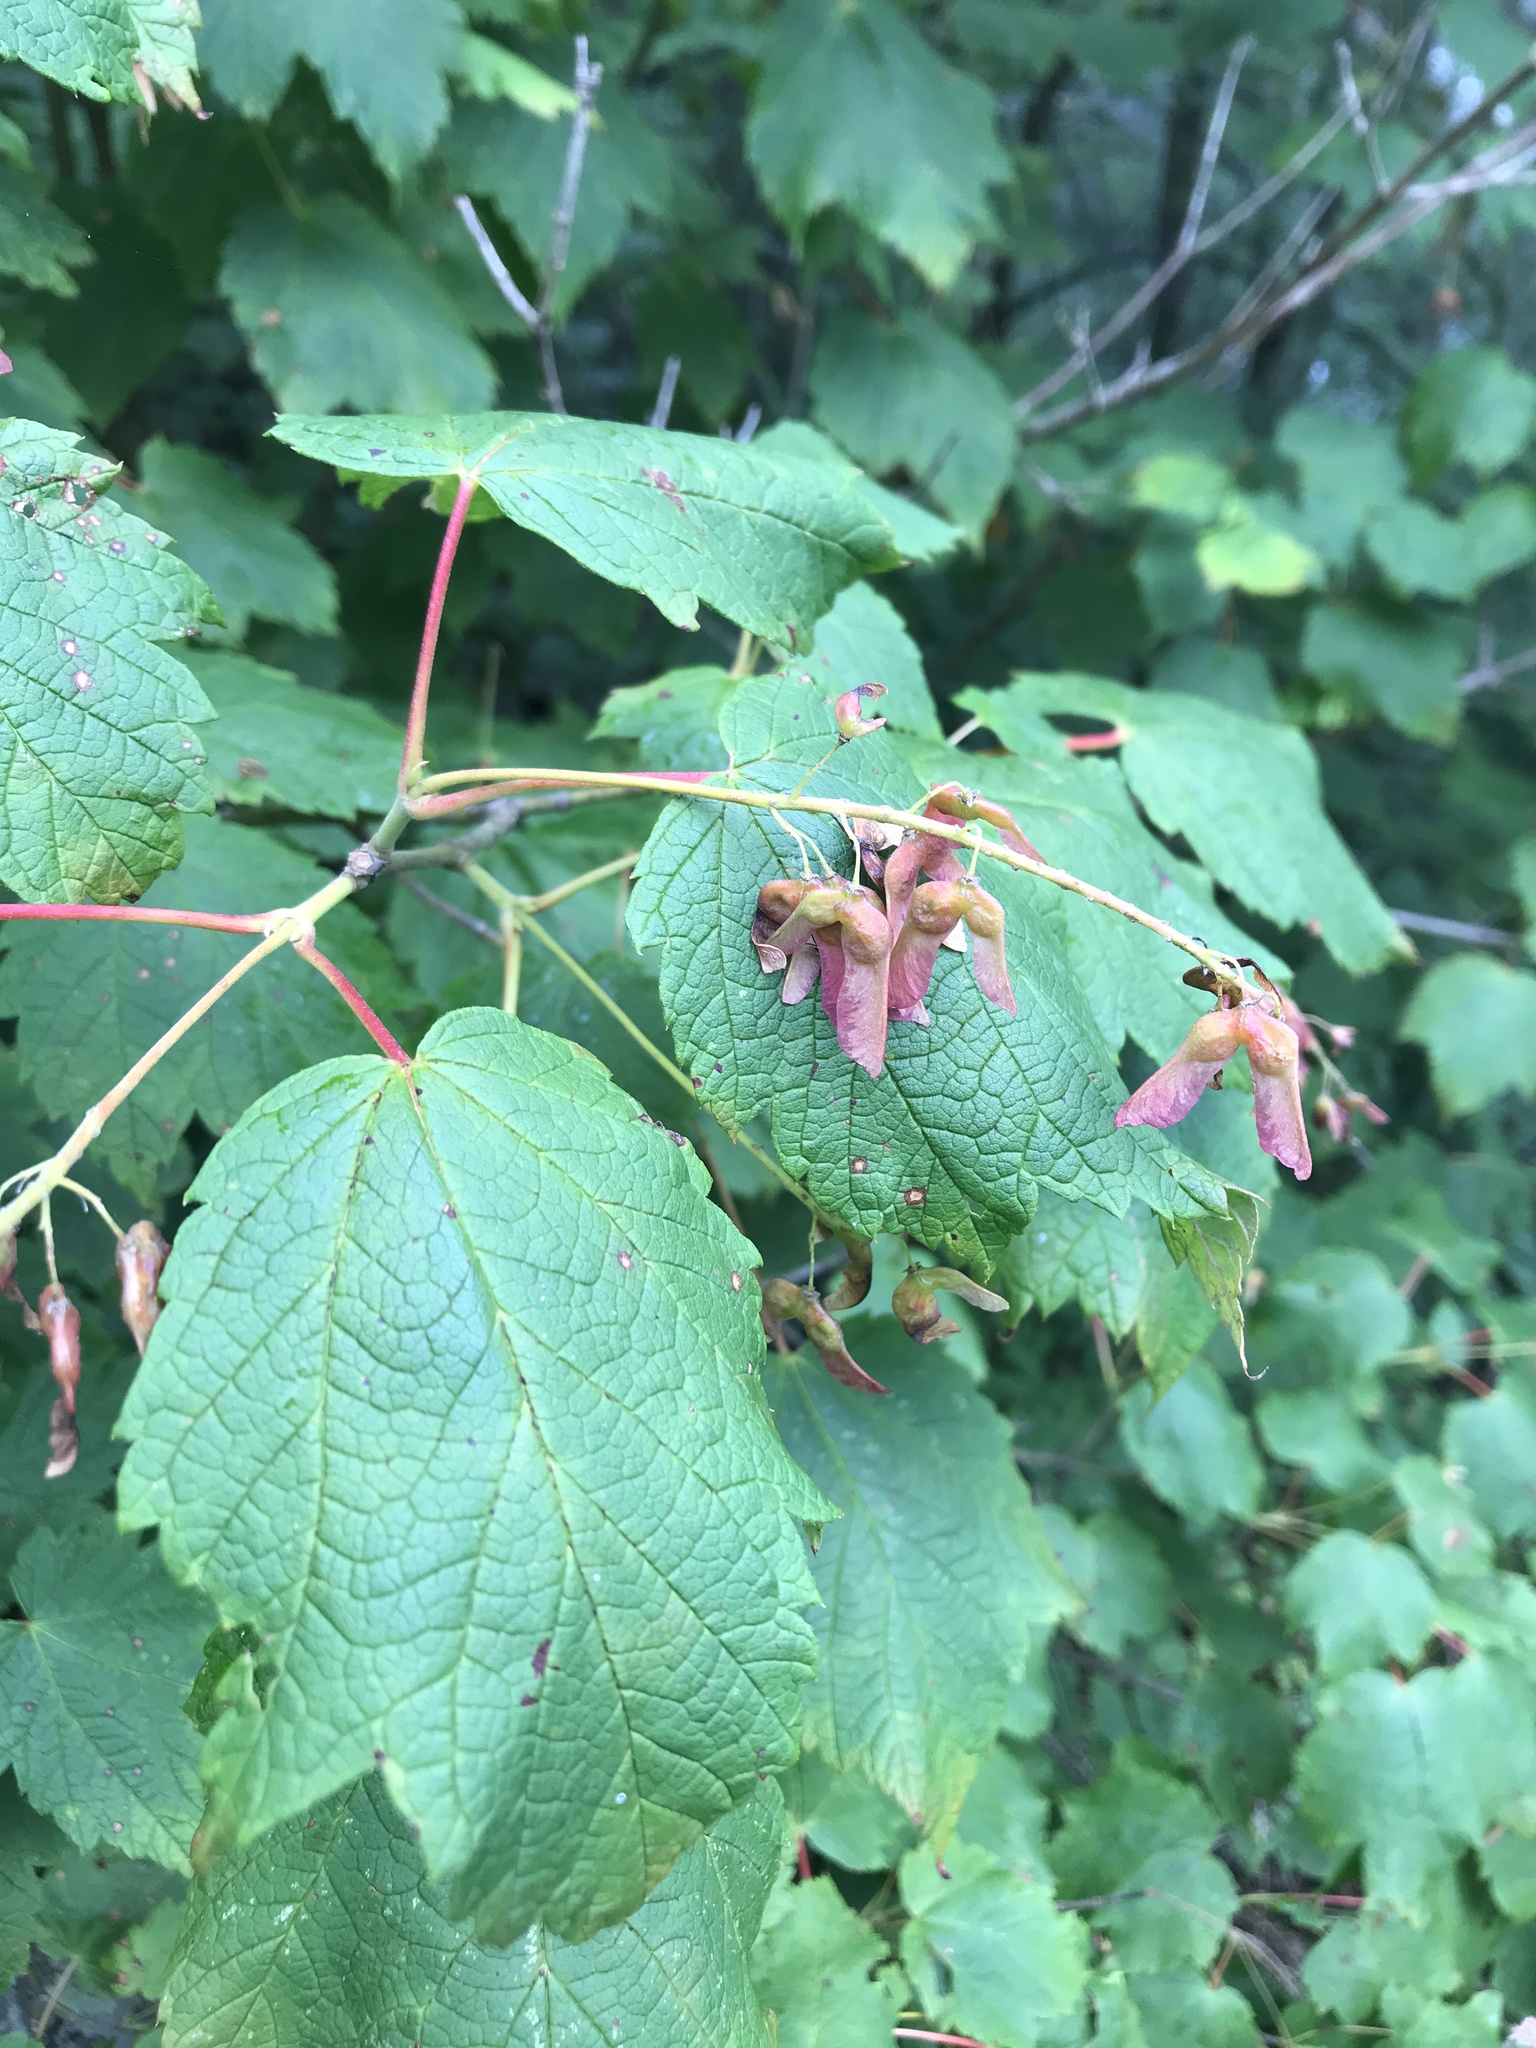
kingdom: Plantae
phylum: Tracheophyta
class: Magnoliopsida
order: Sapindales
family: Sapindaceae
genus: Acer
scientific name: Acer spicatum
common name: Mountain maple
